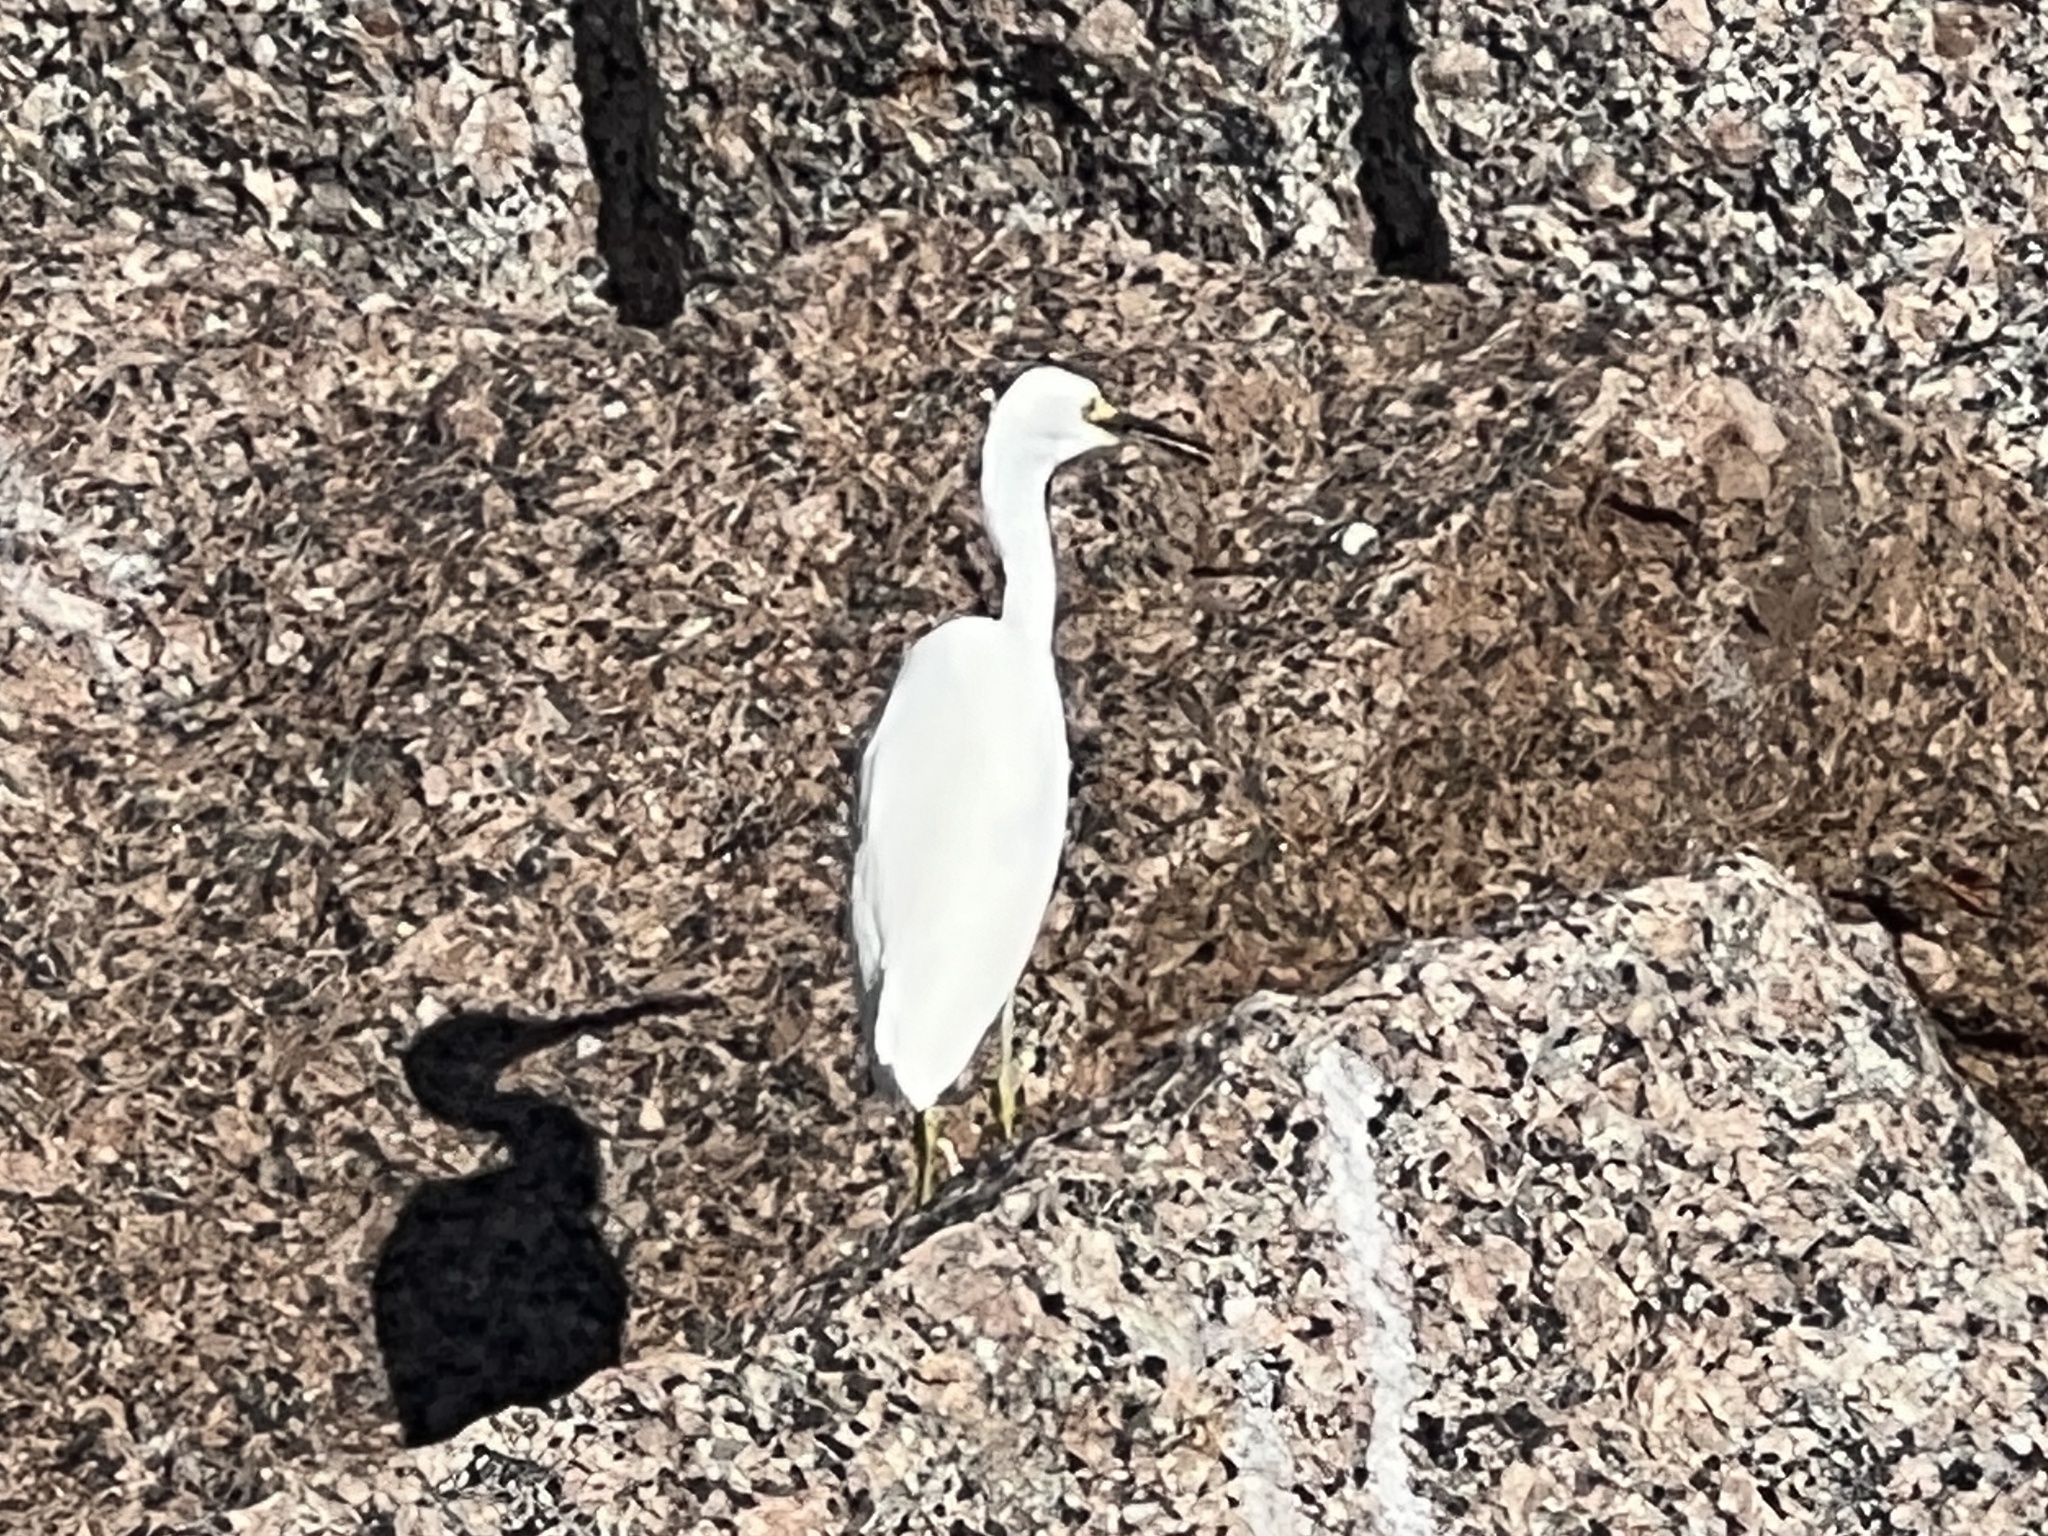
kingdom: Animalia
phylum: Chordata
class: Aves
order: Pelecaniformes
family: Ardeidae
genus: Egretta
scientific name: Egretta thula
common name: Snowy egret
